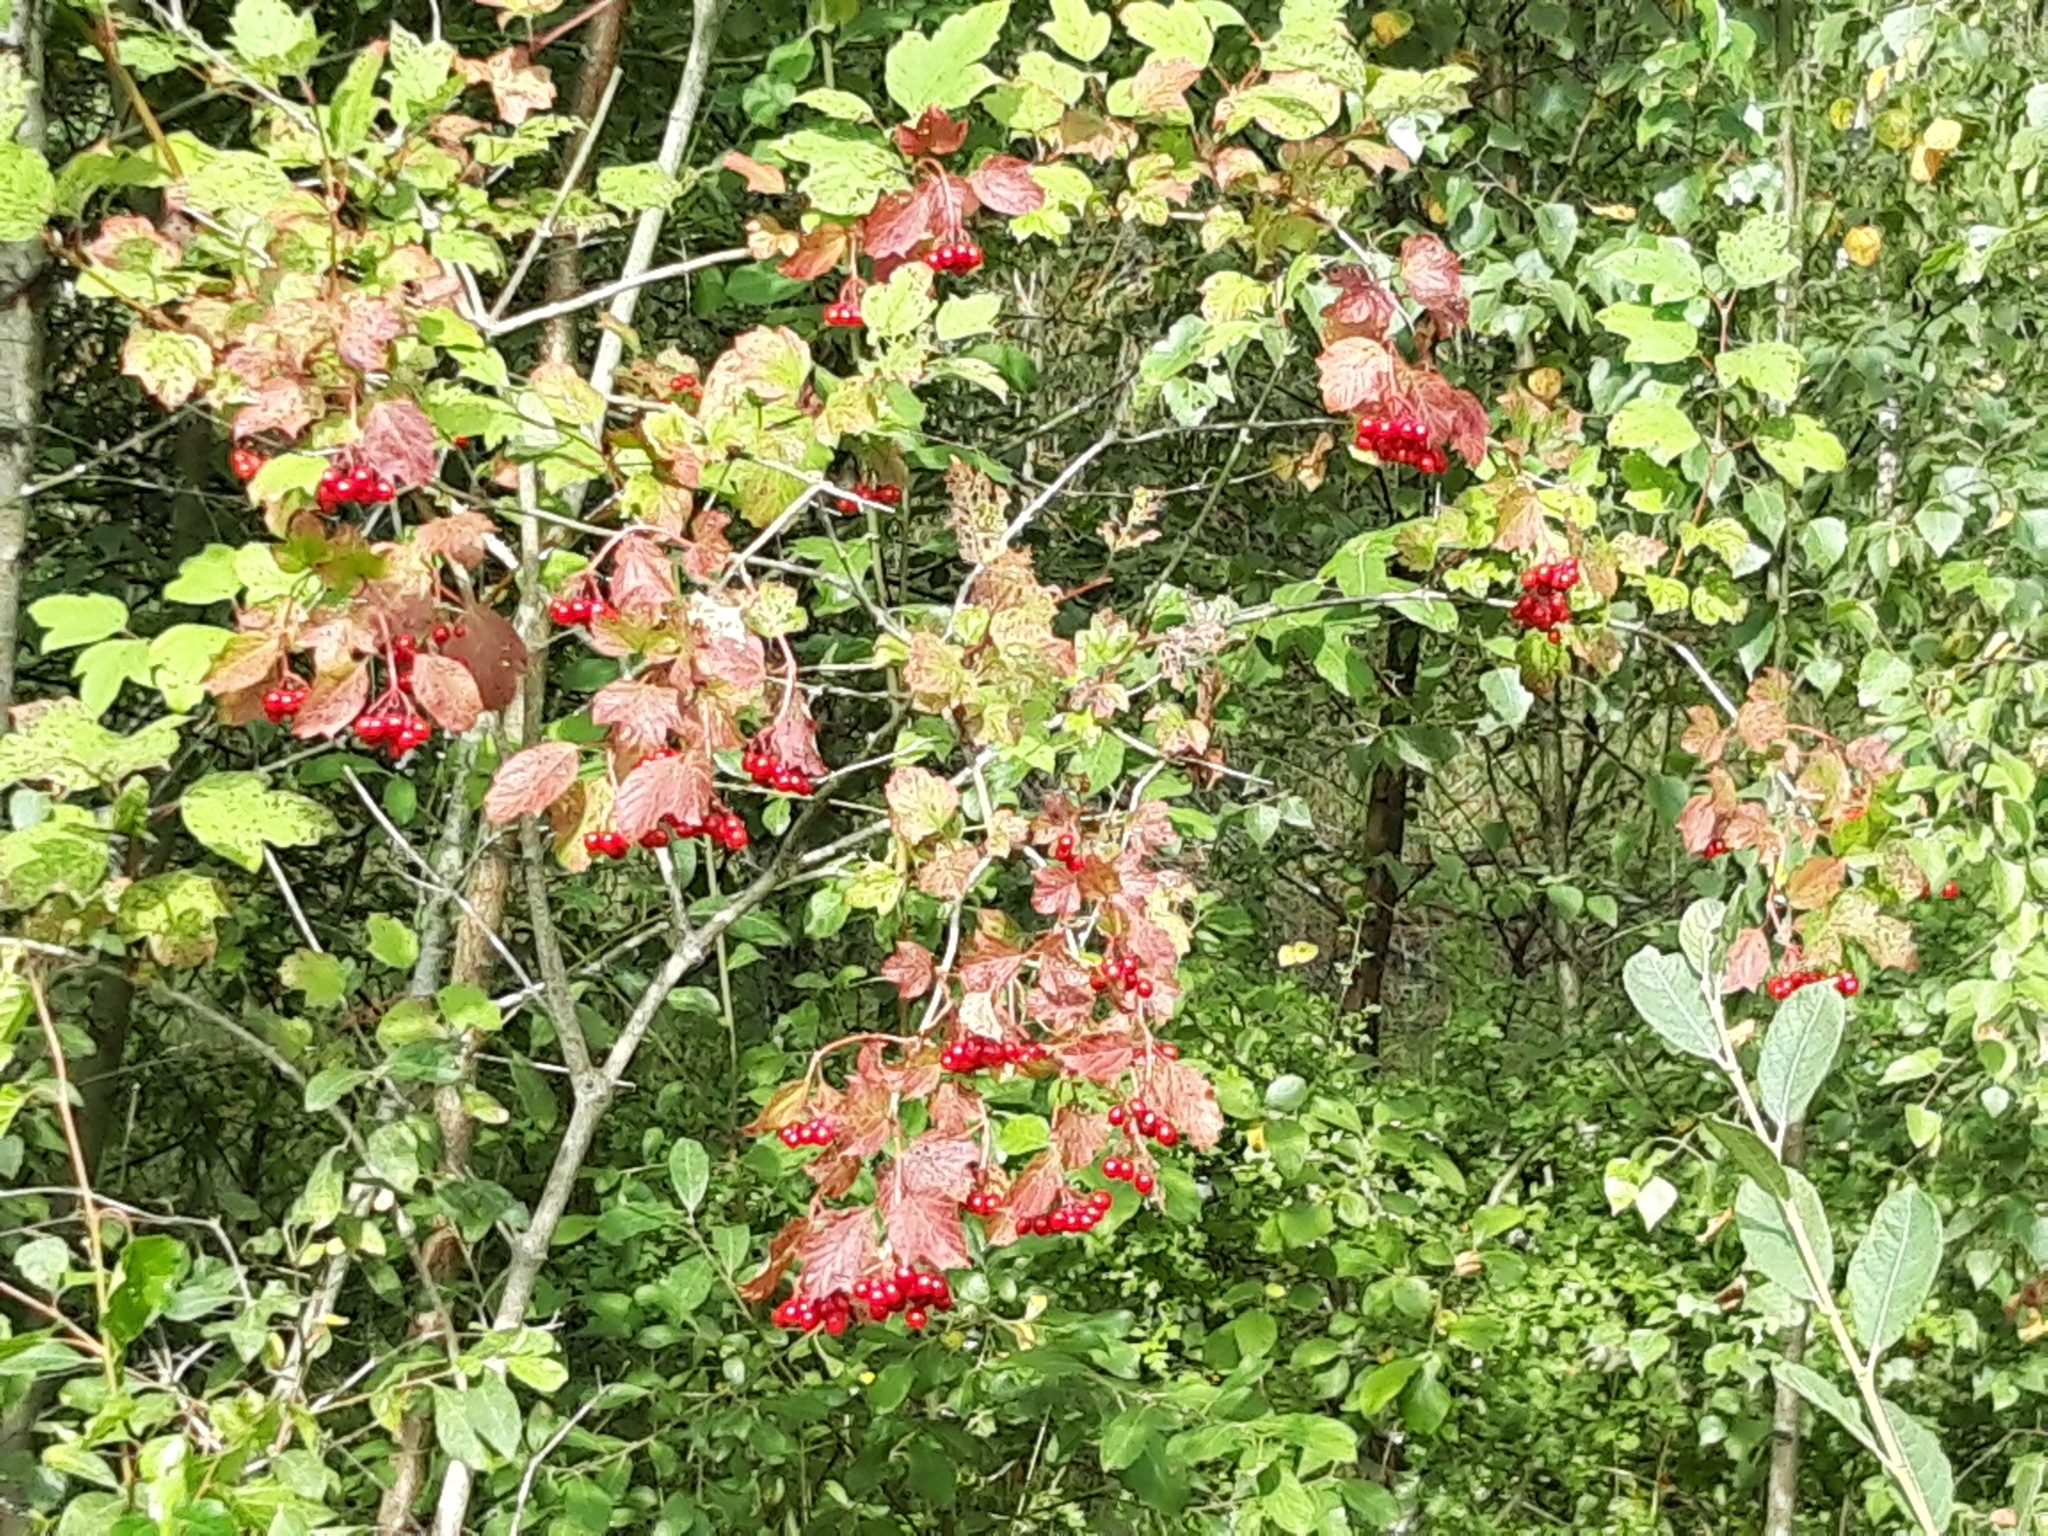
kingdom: Plantae
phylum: Tracheophyta
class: Magnoliopsida
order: Dipsacales
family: Viburnaceae
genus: Viburnum
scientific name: Viburnum opulus
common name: Guelder-rose
